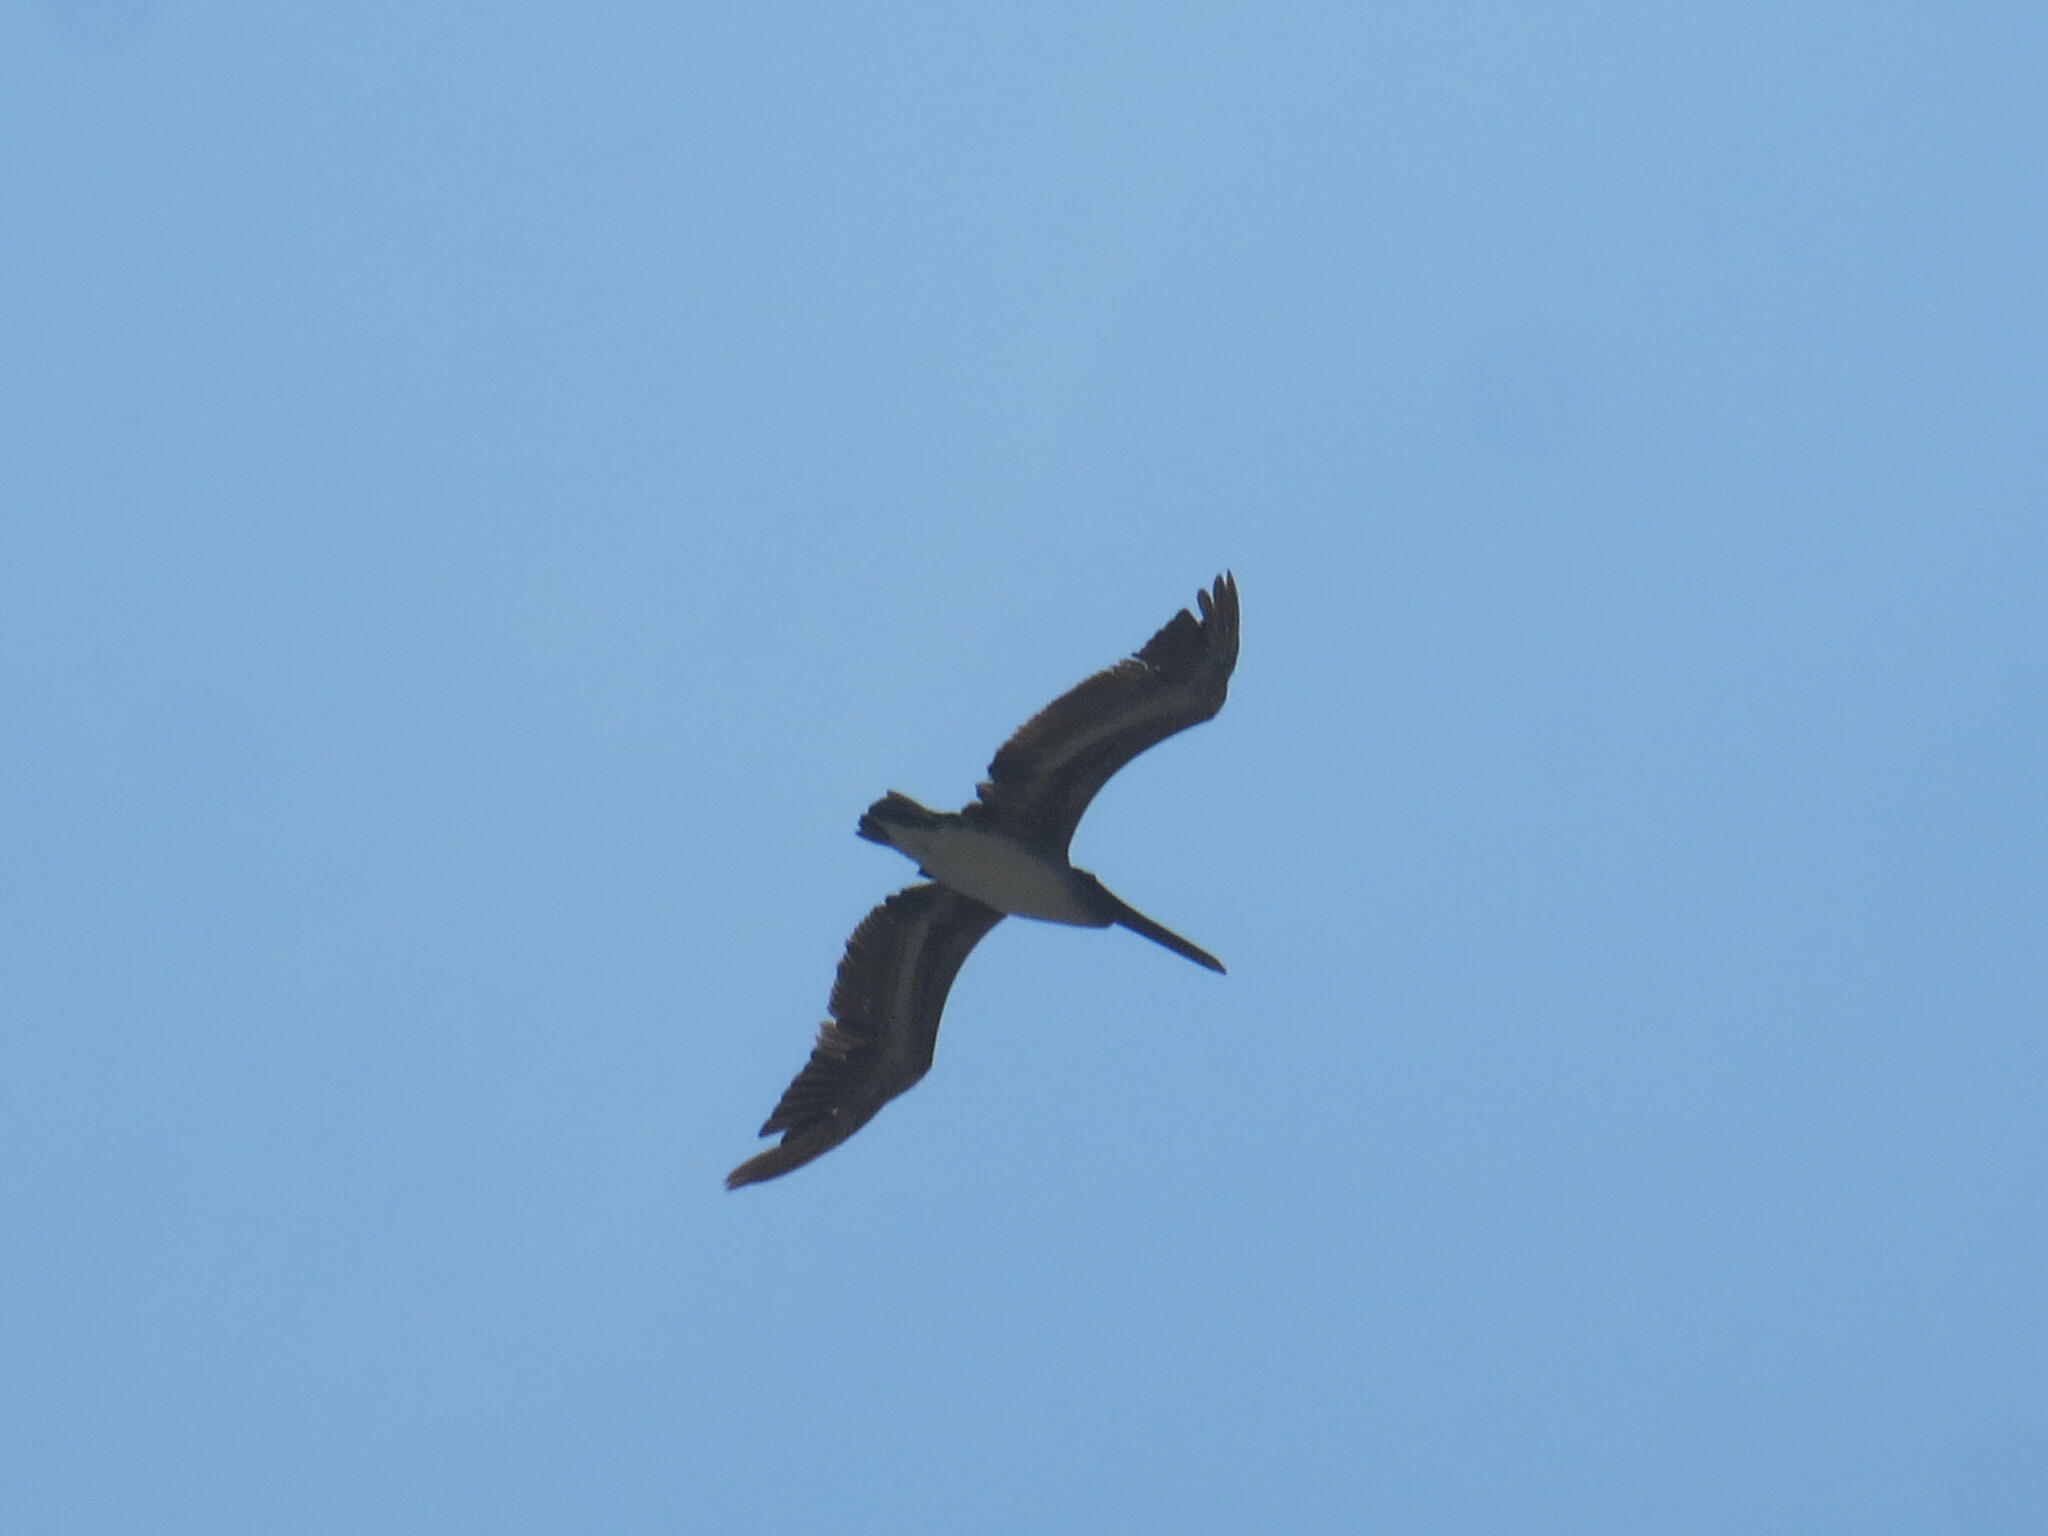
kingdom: Animalia
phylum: Chordata
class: Aves
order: Pelecaniformes
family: Pelecanidae
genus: Pelecanus
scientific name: Pelecanus occidentalis
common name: Brown pelican
